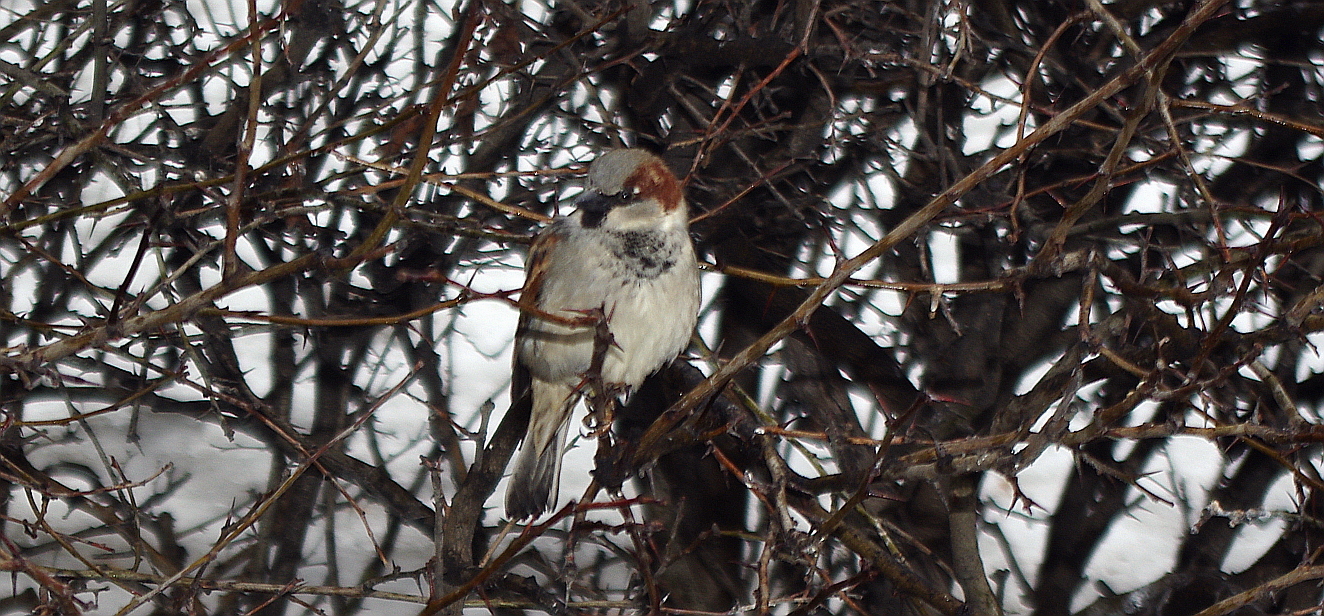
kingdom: Animalia
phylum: Chordata
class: Aves
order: Passeriformes
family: Passeridae
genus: Passer
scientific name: Passer domesticus
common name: House sparrow
